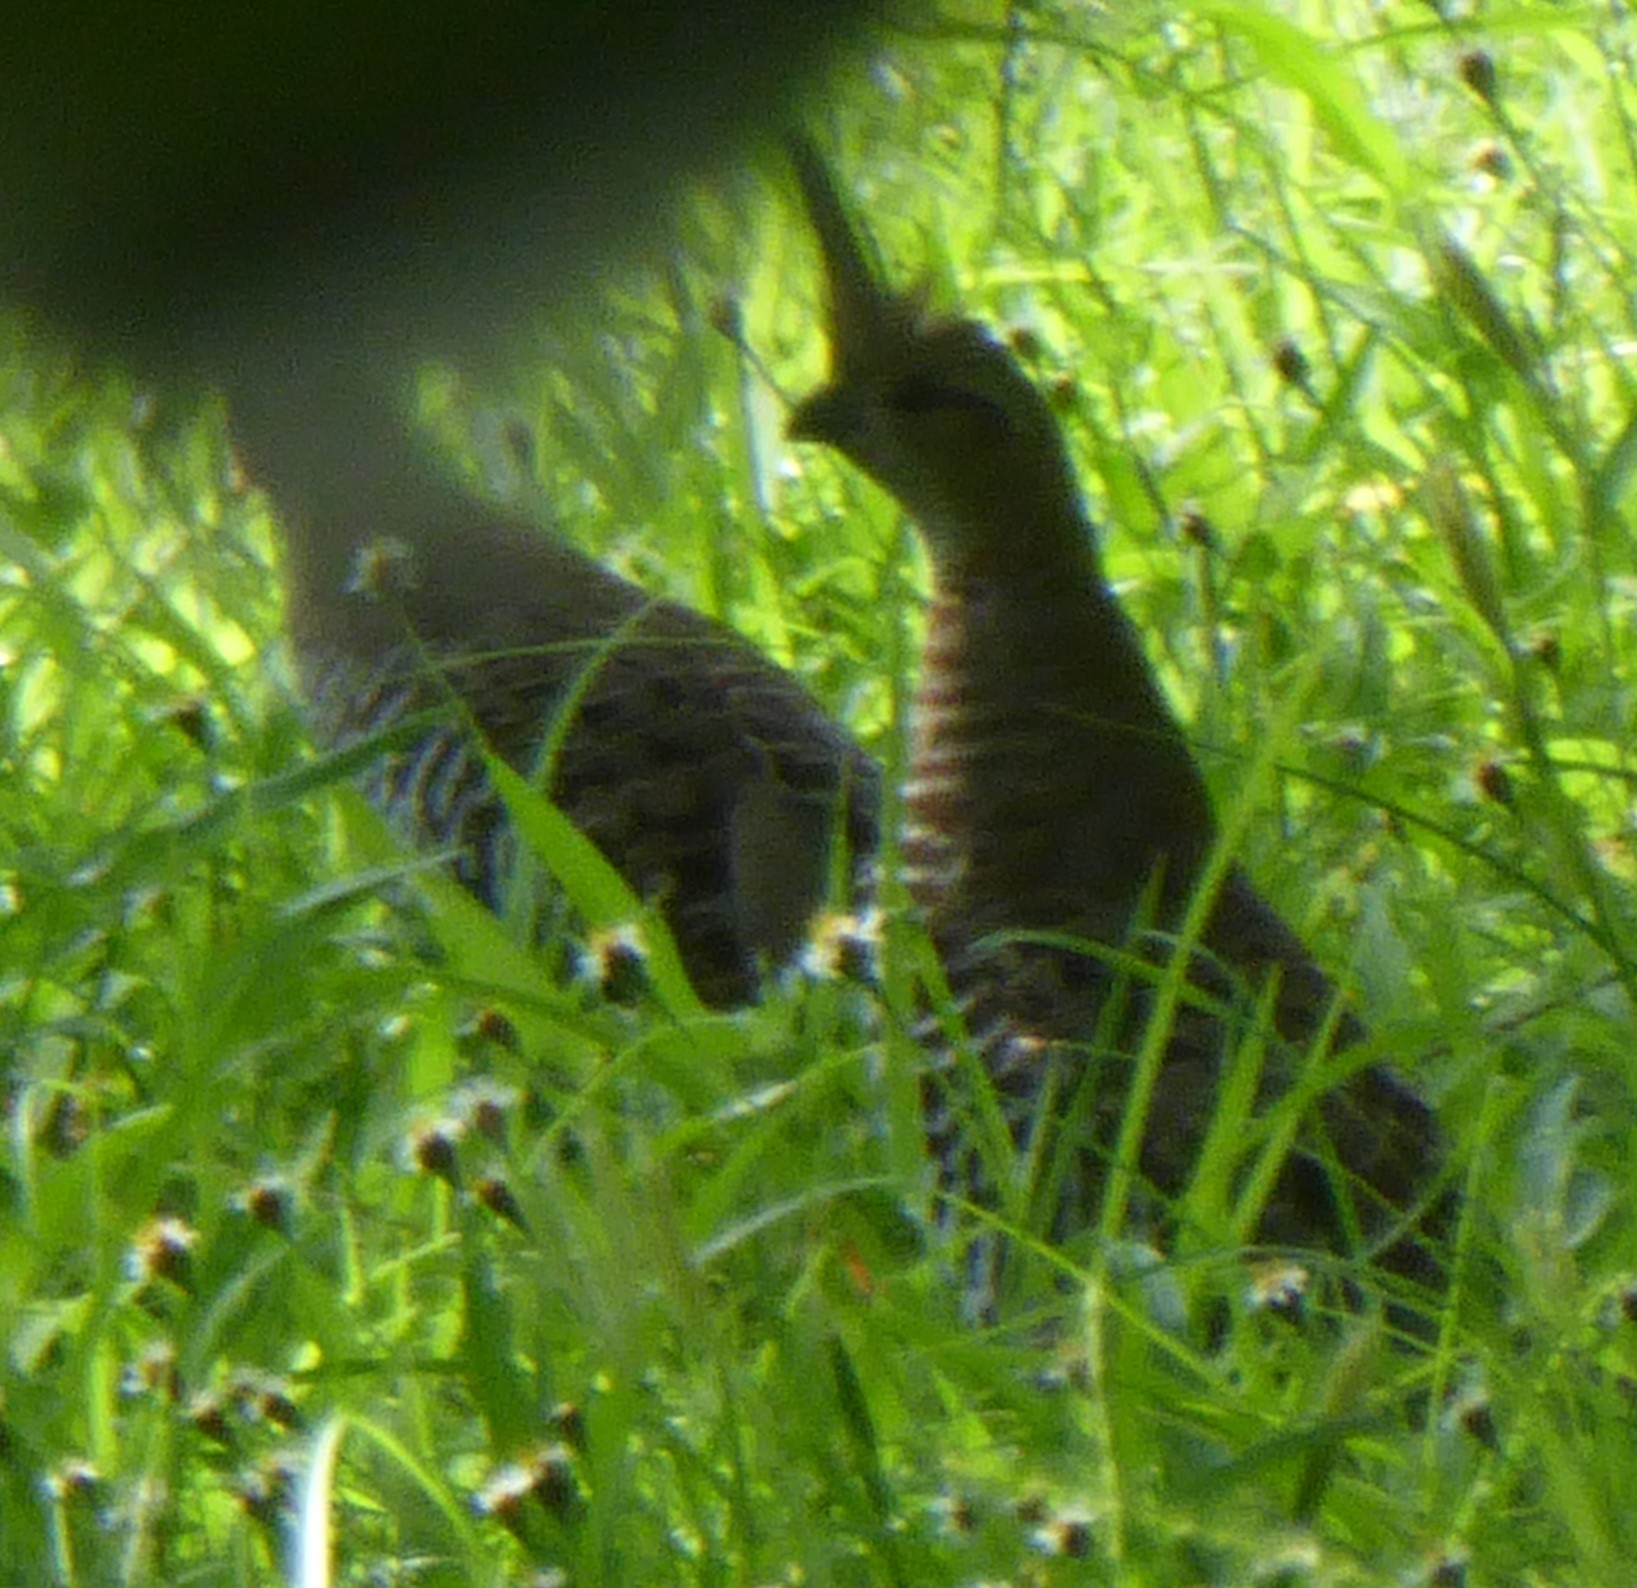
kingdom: Animalia
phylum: Chordata
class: Aves
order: Galliformes
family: Odontophoridae
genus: Philortyx
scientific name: Philortyx fasciatus
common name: Banded quail
